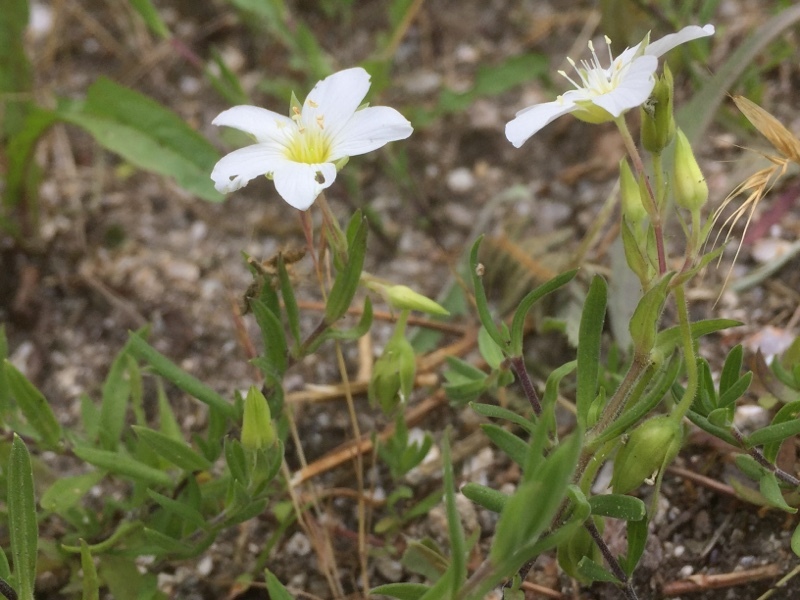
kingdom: Plantae
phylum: Tracheophyta
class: Magnoliopsida
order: Caryophyllales
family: Caryophyllaceae
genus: Arenaria
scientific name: Arenaria montana
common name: Mountain sandwort
